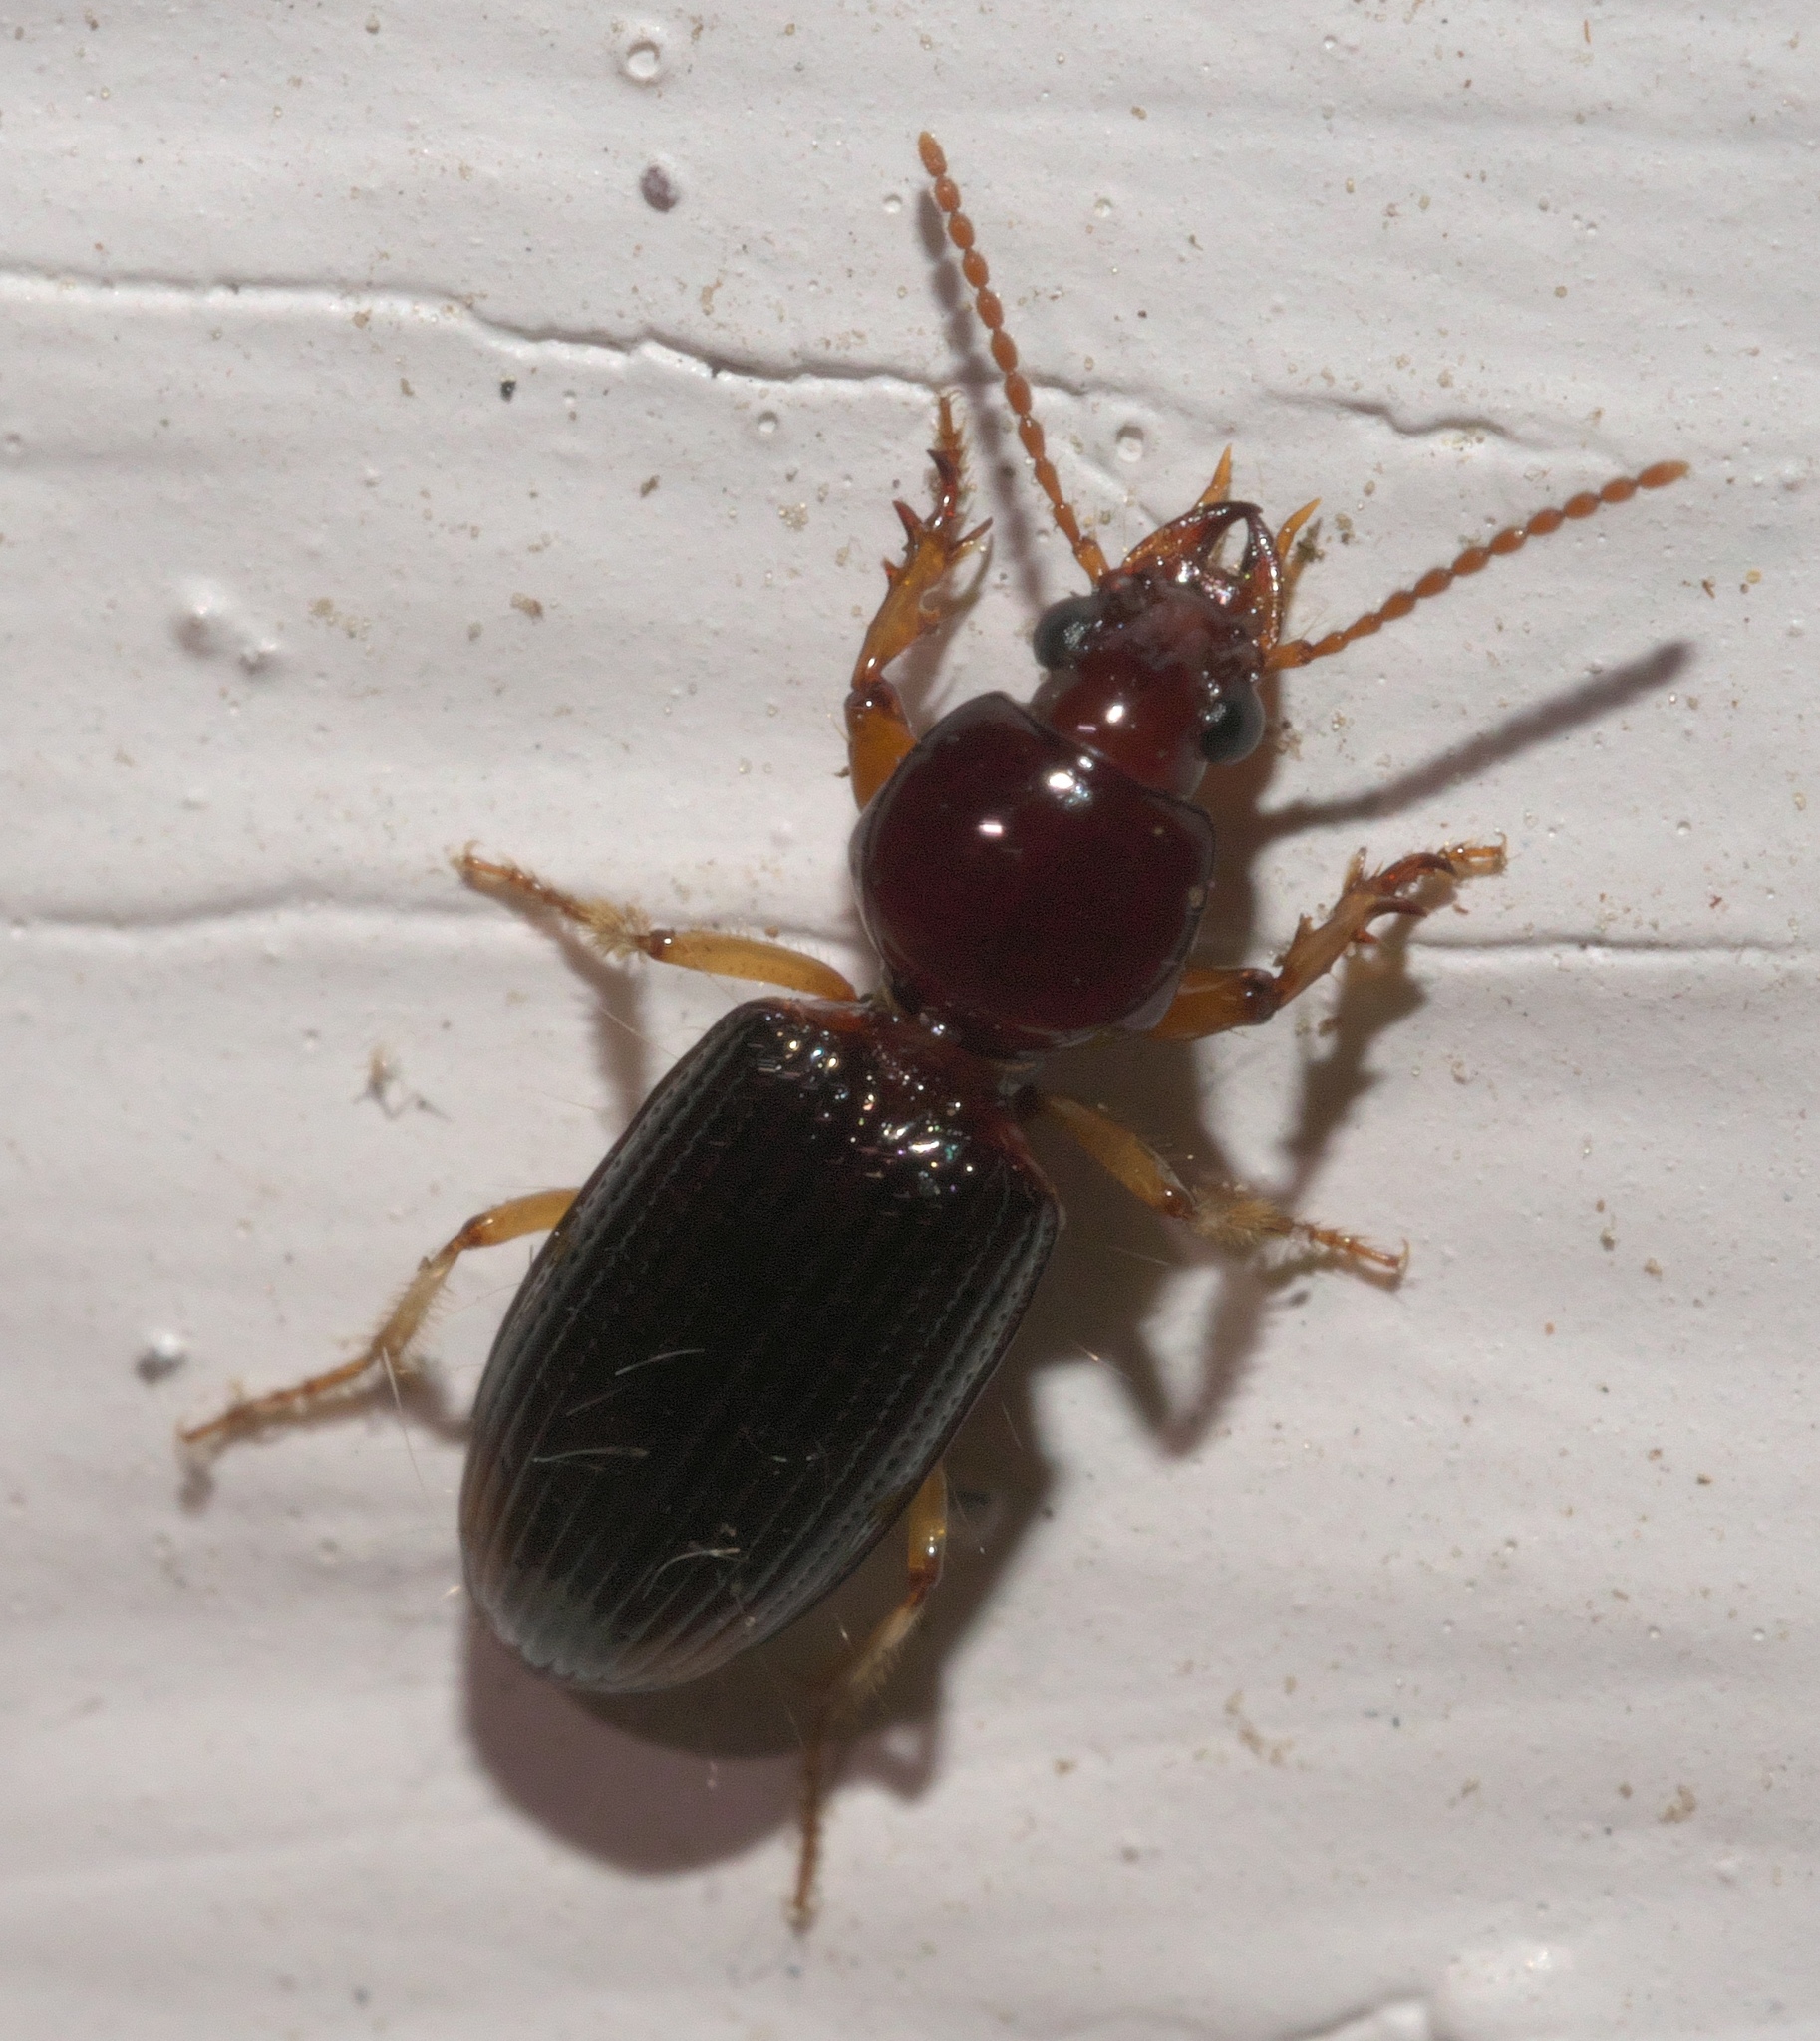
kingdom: Animalia
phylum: Arthropoda
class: Insecta
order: Coleoptera
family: Carabidae
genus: Aspidoglossa
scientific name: Aspidoglossa subangulata
